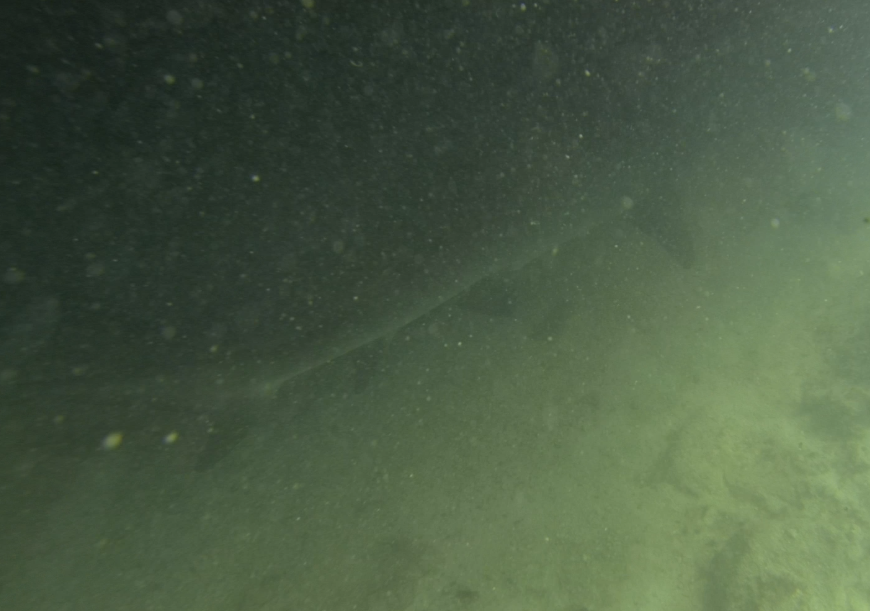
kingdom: Animalia
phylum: Chordata
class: Elasmobranchii
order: Carcharhiniformes
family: Carcharhinidae
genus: Triaenodon
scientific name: Triaenodon obesus
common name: Whitetip reef shark
